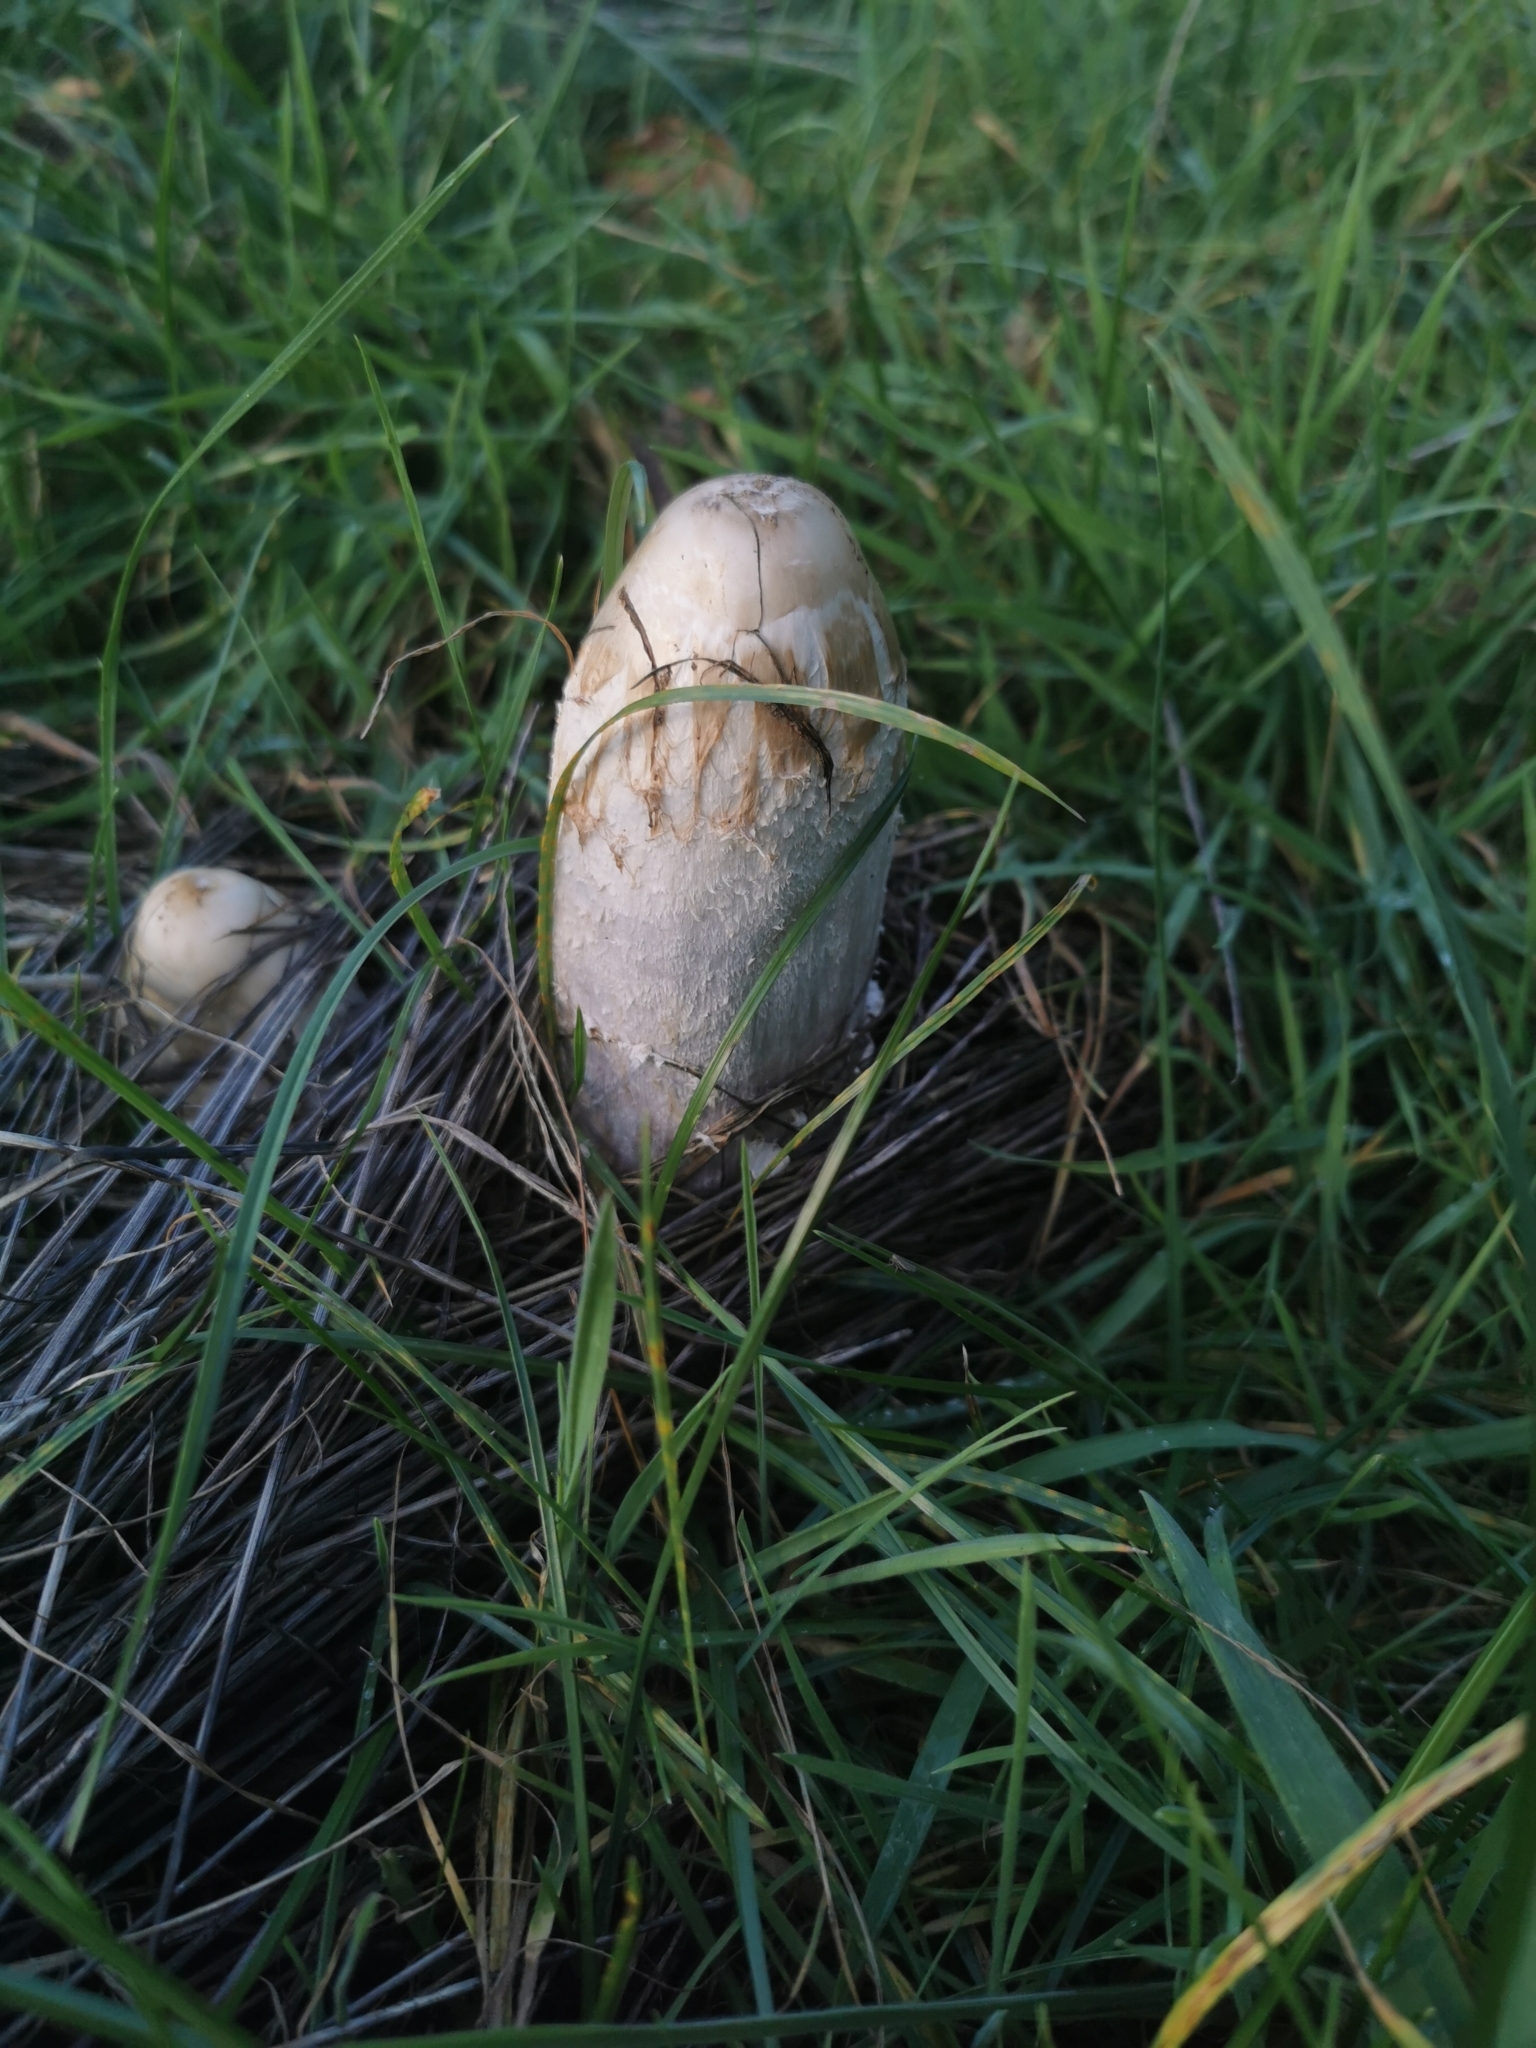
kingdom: Fungi
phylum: Basidiomycota
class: Agaricomycetes
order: Agaricales
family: Agaricaceae
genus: Coprinus
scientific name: Coprinus comatus
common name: Lawyer's wig
